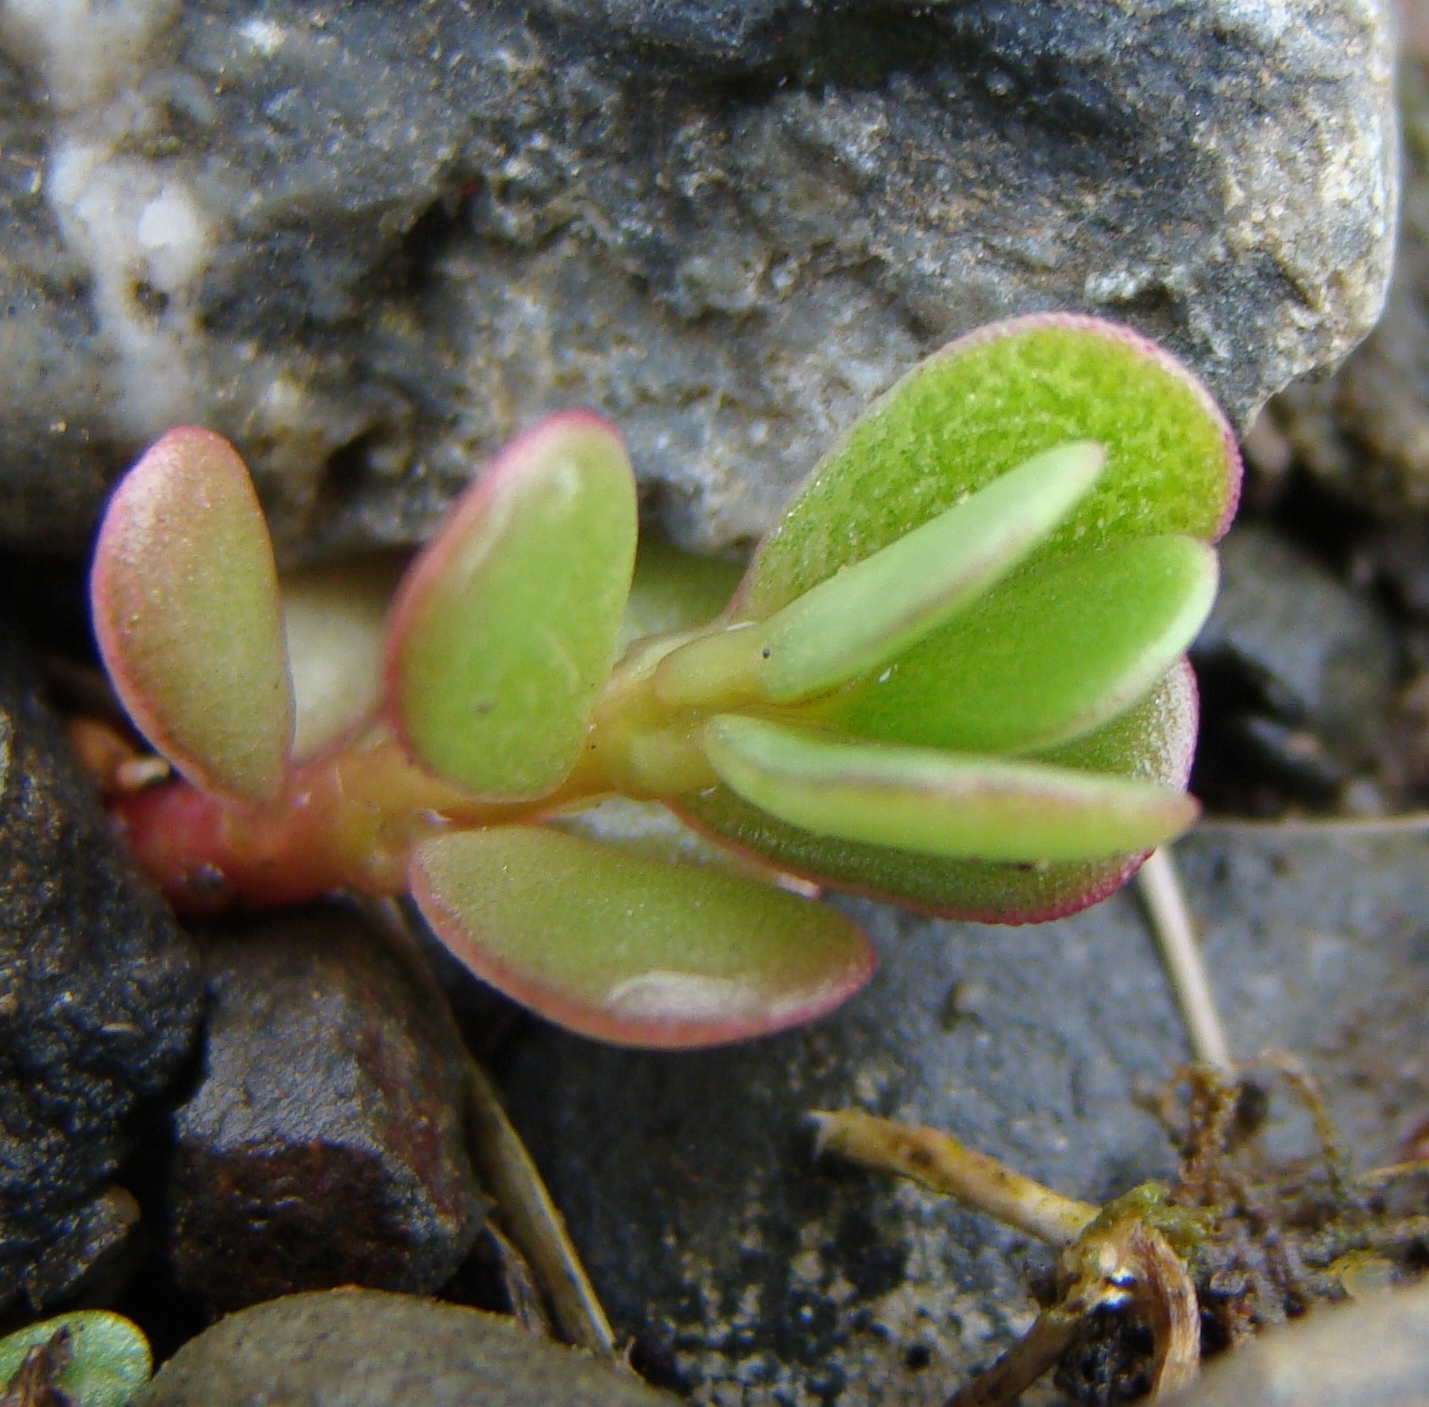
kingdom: Plantae
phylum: Tracheophyta
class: Magnoliopsida
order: Caryophyllales
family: Portulacaceae
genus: Portulaca
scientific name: Portulaca oleracea
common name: Common purslane
